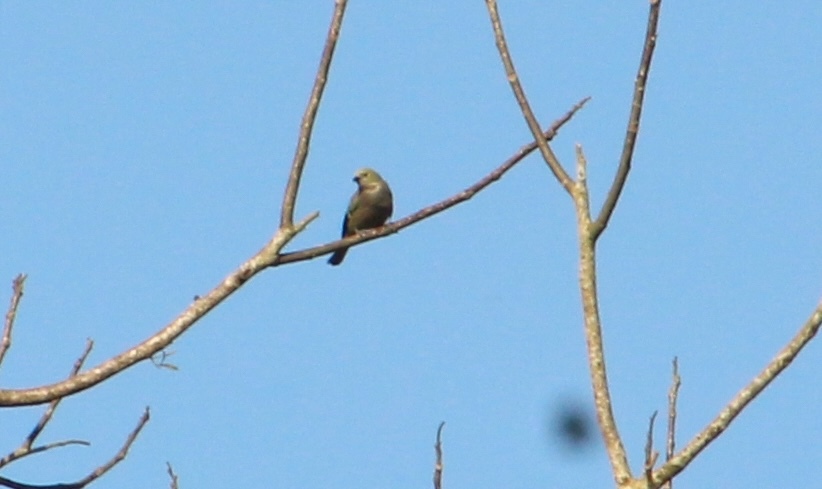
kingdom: Animalia
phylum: Chordata
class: Aves
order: Passeriformes
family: Thraupidae
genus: Thraupis
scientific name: Thraupis palmarum
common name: Palm tanager
